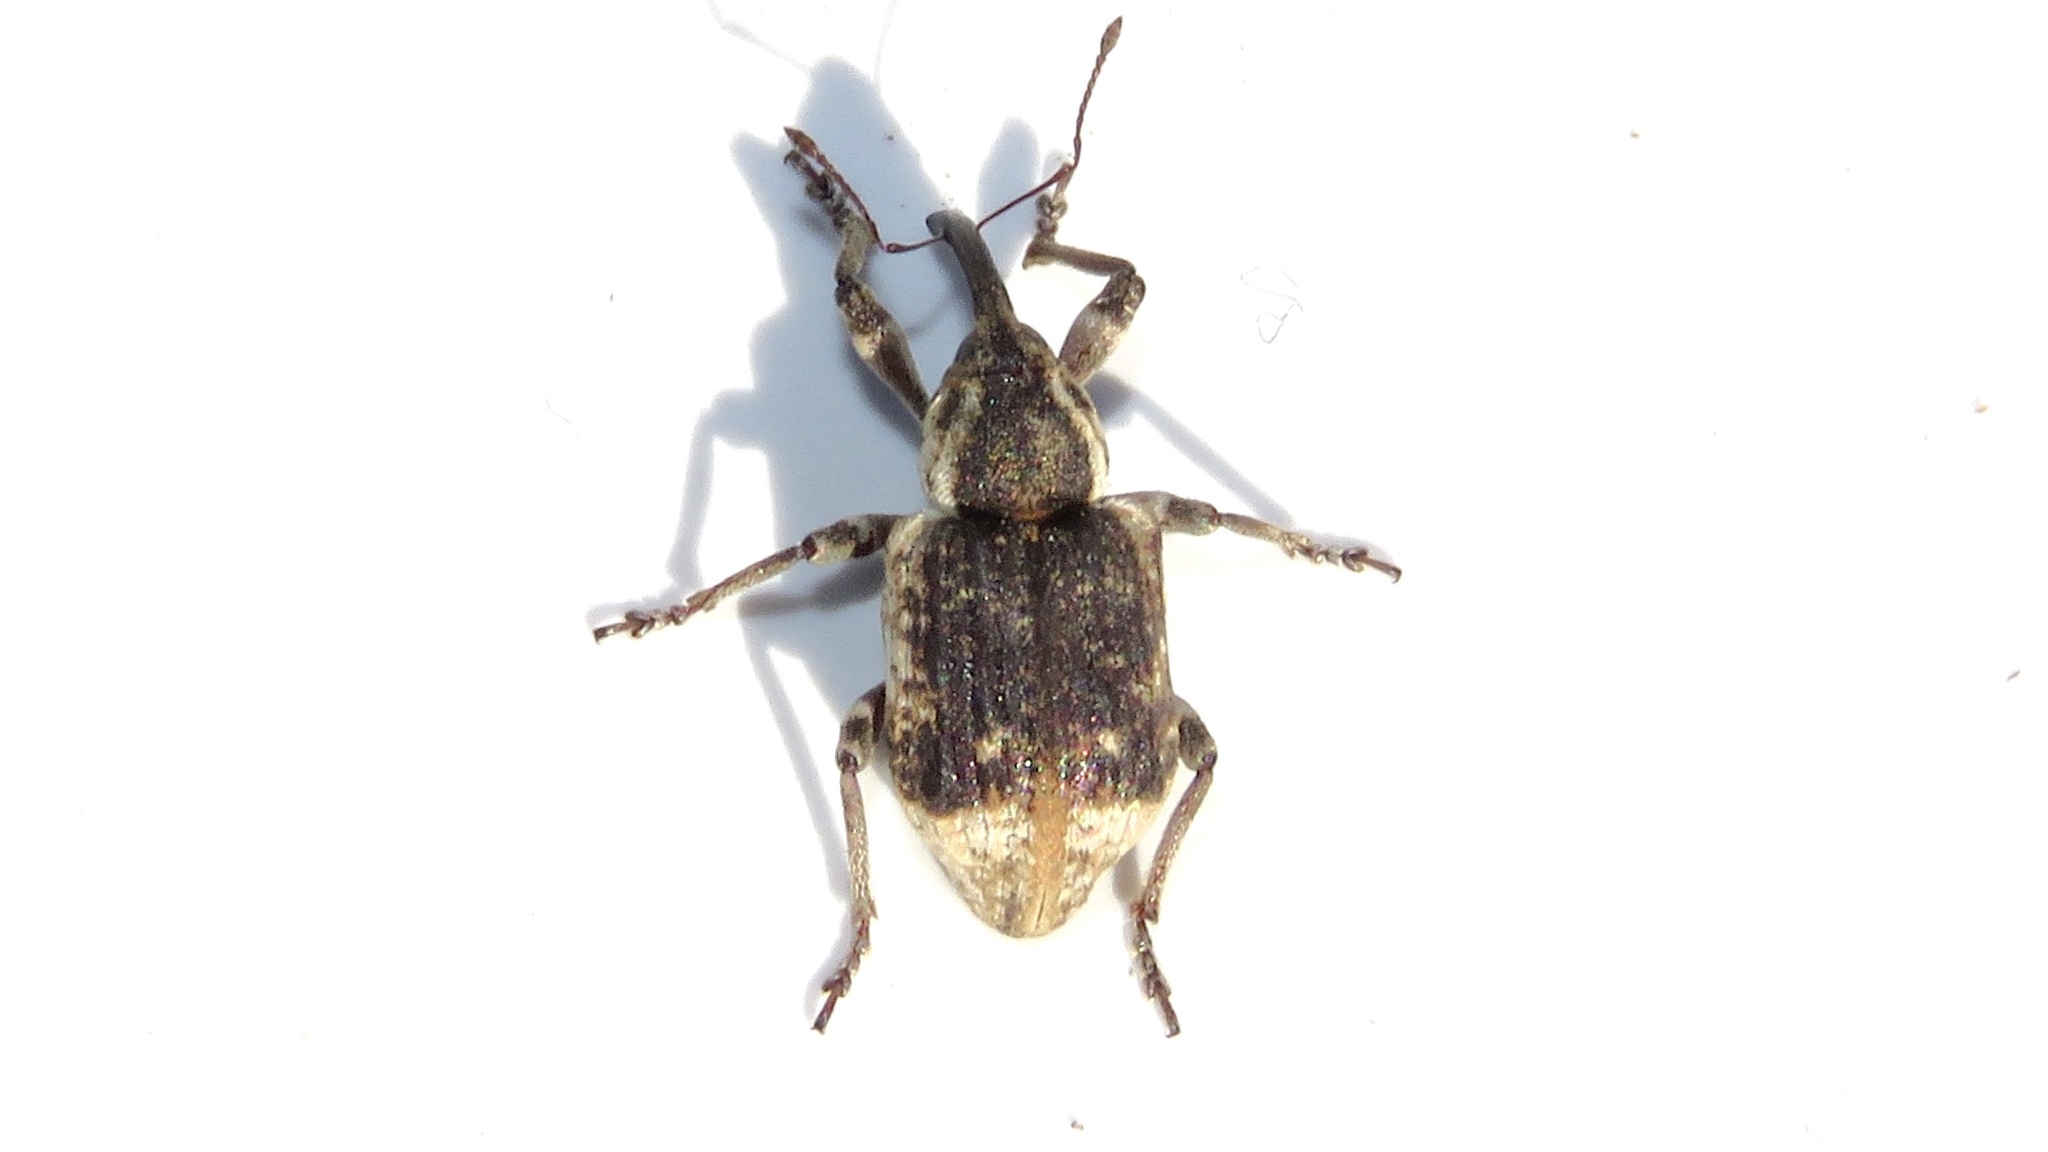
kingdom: Animalia
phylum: Arthropoda
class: Insecta
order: Coleoptera
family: Brachyceridae
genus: Grypus
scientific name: Grypus equiseti
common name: Horsetail weevil
